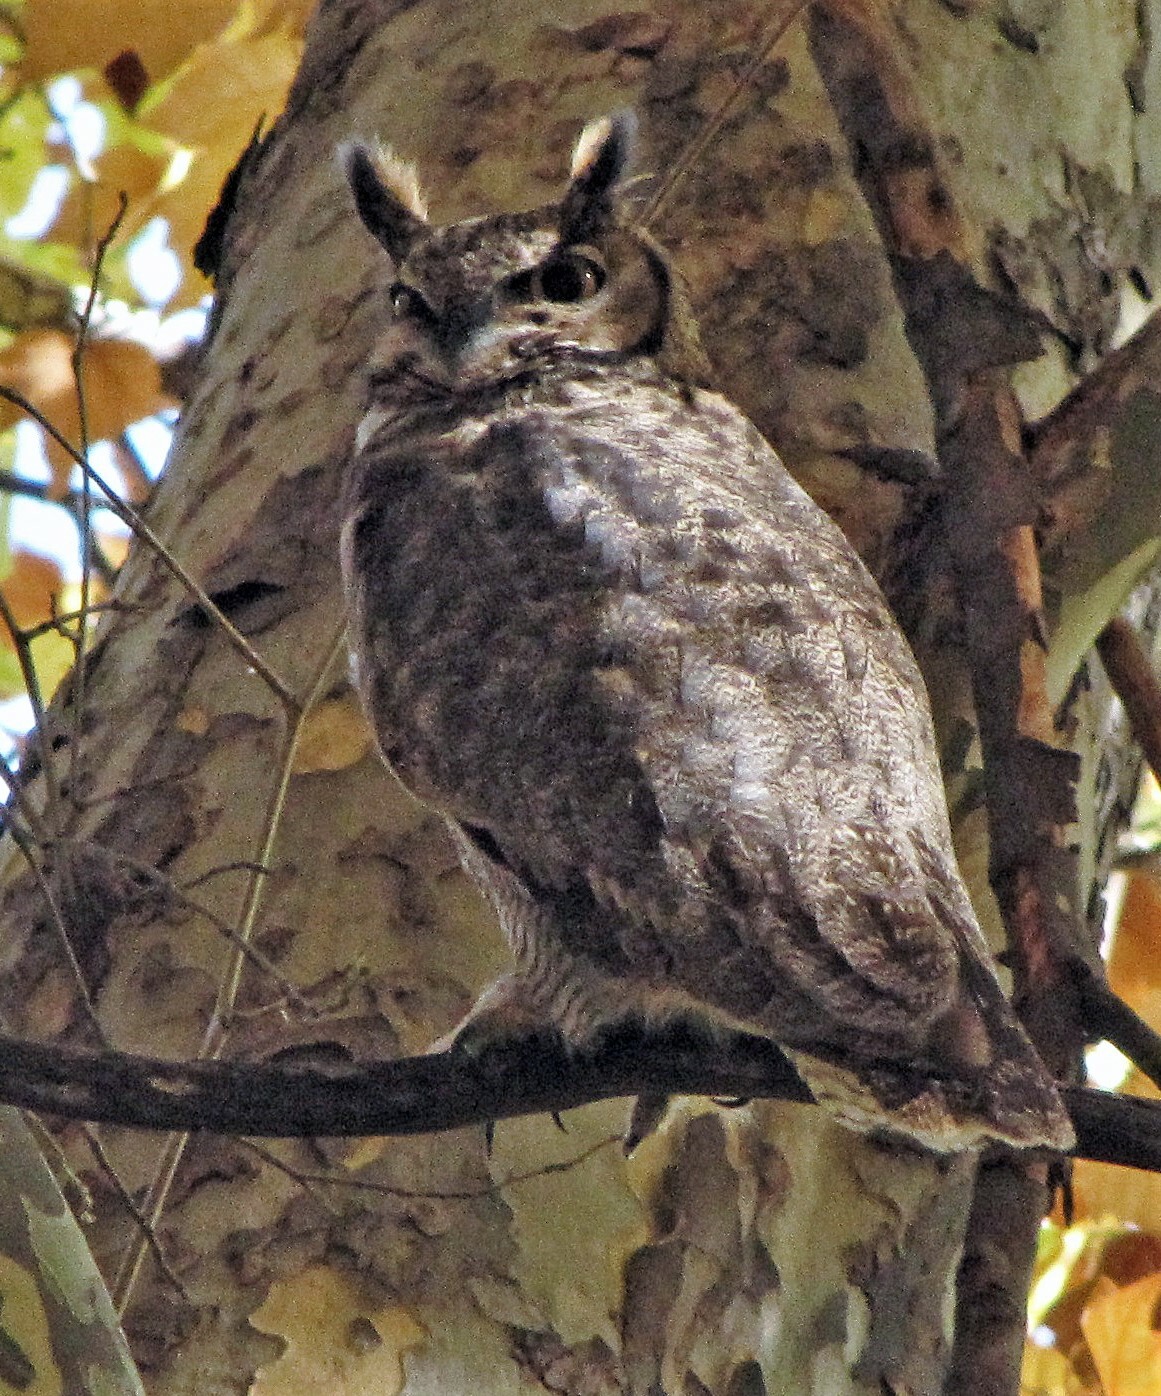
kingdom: Animalia
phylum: Chordata
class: Aves
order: Strigiformes
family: Strigidae
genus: Bubo
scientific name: Bubo magellanicus
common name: Lesser horned owl
